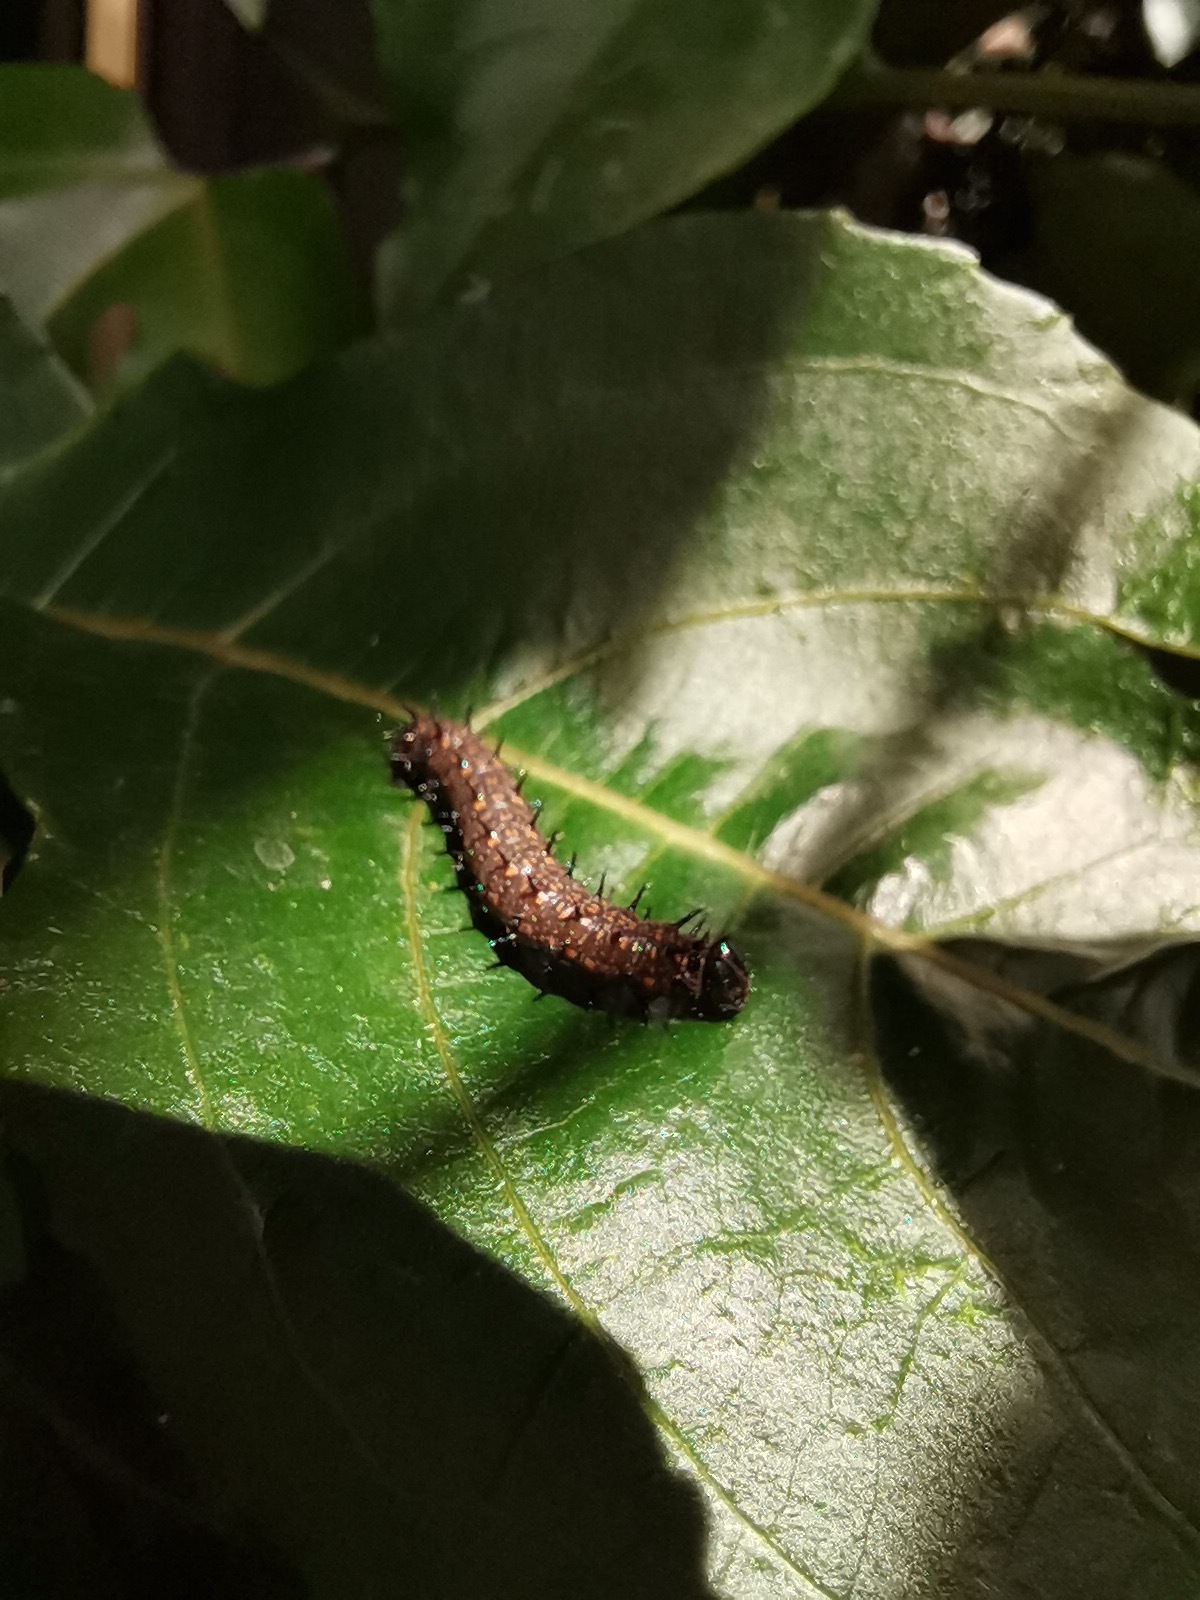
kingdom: Animalia
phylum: Arthropoda
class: Insecta
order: Lepidoptera
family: Nymphalidae
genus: Dione
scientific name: Dione juno
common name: Juno silverspot
